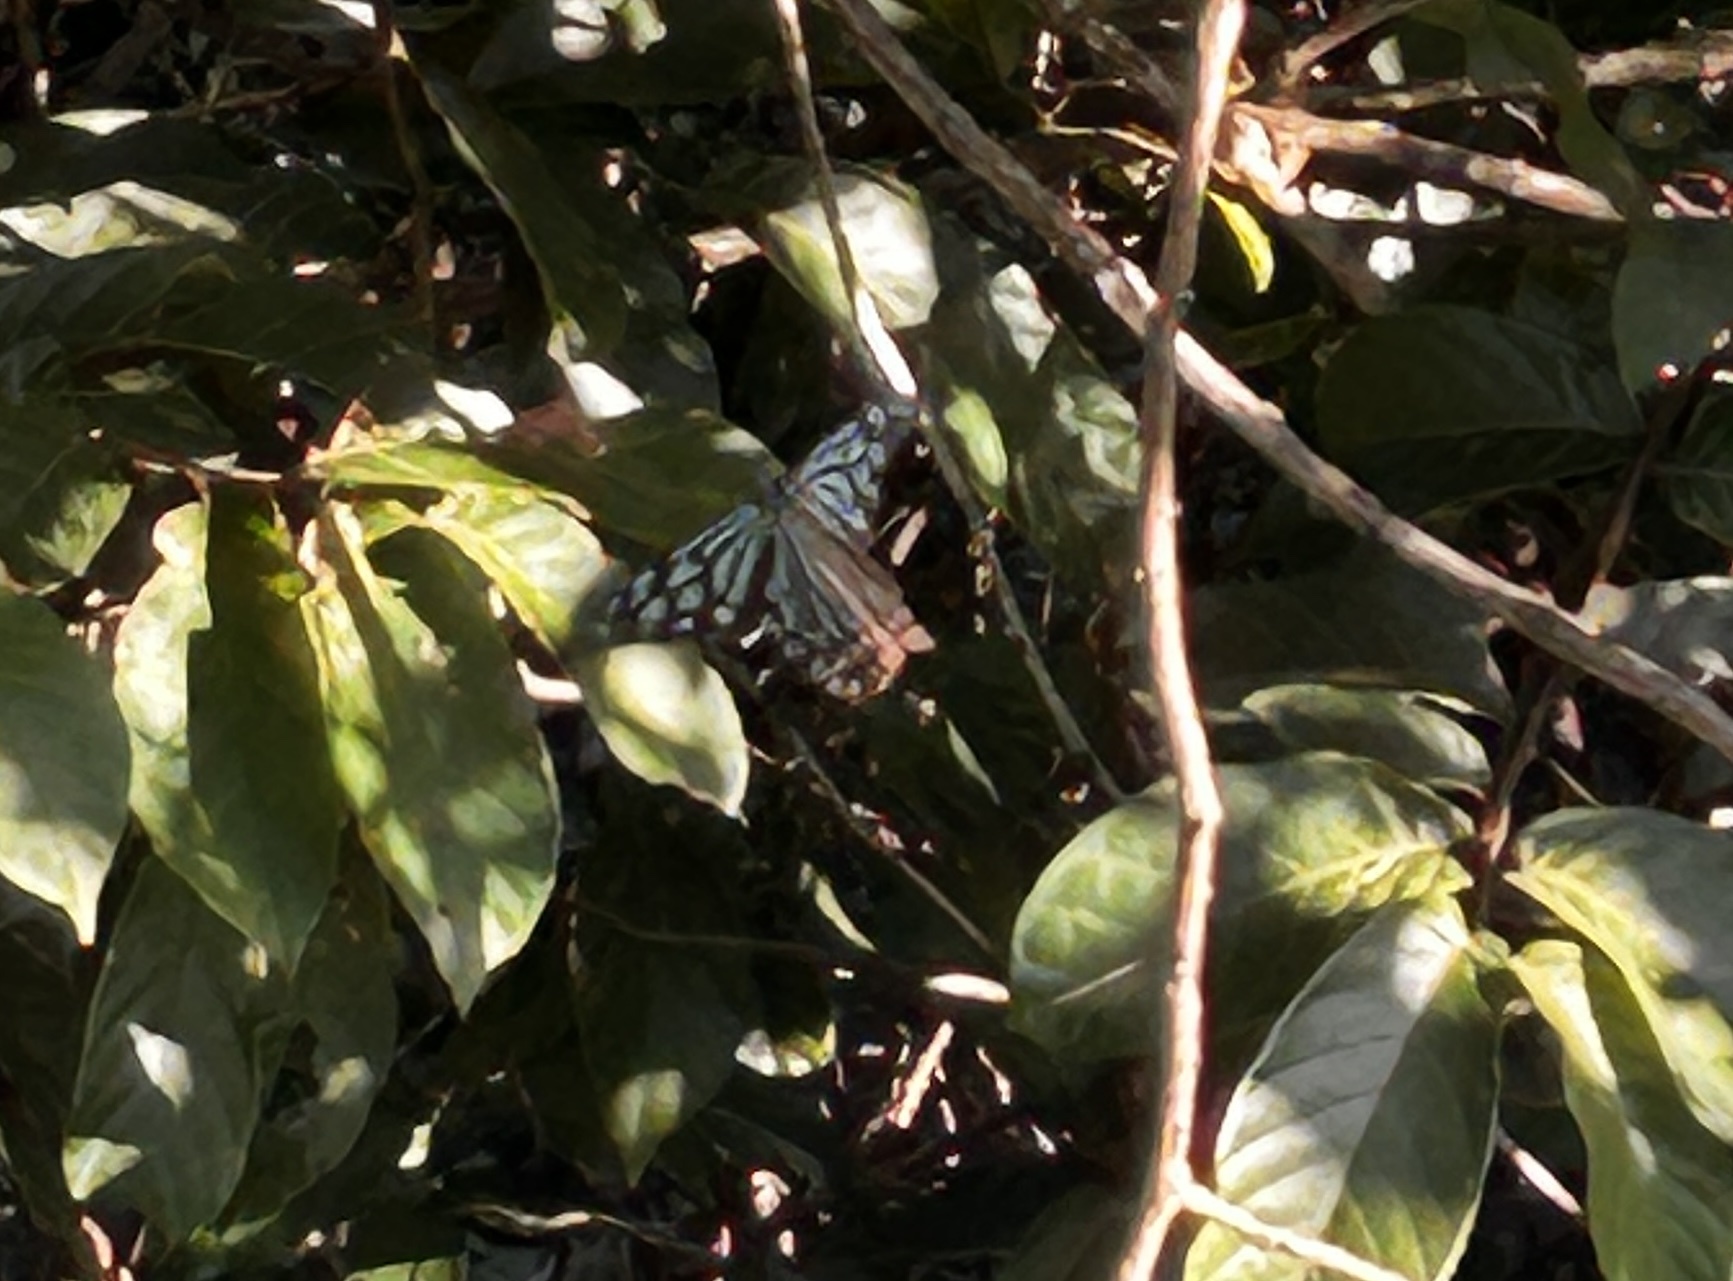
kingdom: Animalia
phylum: Arthropoda
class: Insecta
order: Lepidoptera
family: Nymphalidae
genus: Tirumala
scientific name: Tirumala limniace
